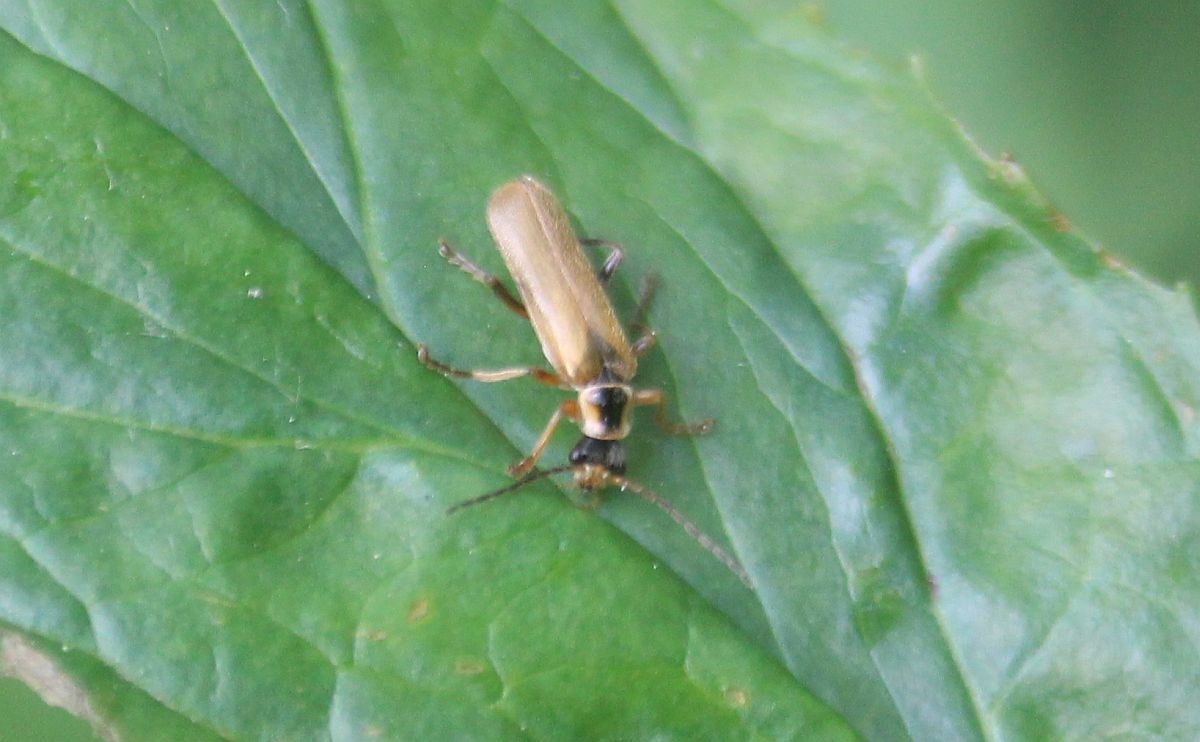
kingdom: Animalia
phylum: Arthropoda
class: Insecta
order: Coleoptera
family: Cantharidae
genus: Cantharis
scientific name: Cantharis decipiens
